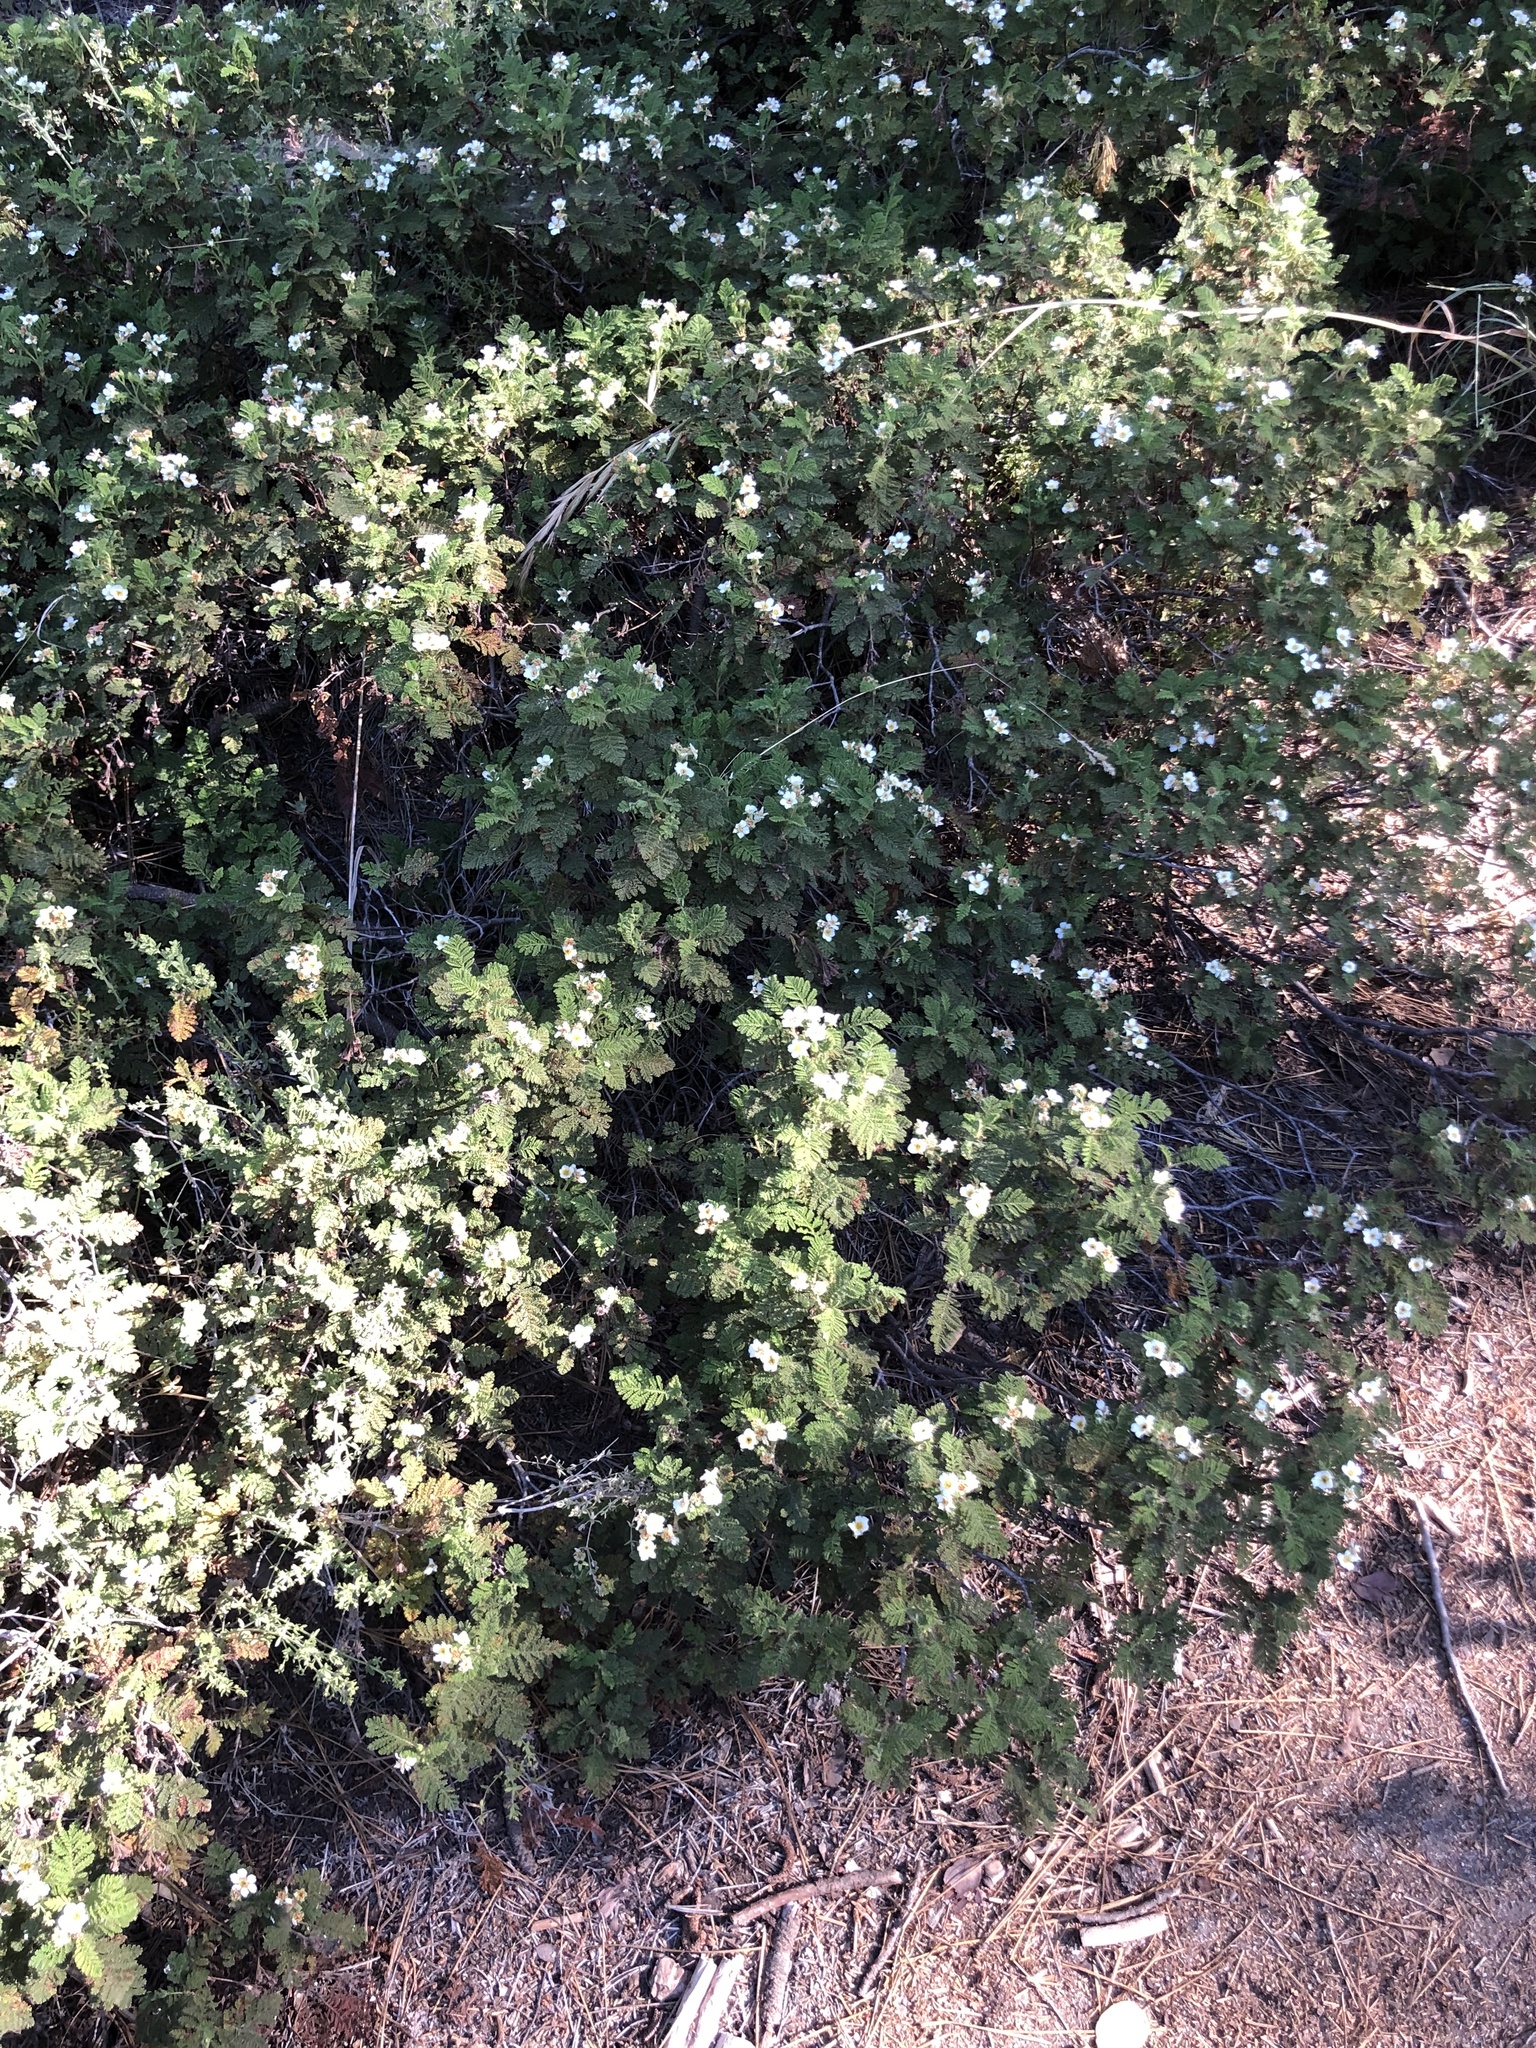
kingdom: Plantae
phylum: Tracheophyta
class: Magnoliopsida
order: Rosales
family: Rosaceae
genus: Chamaebatia
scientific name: Chamaebatia foliolosa
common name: Mountain misery
